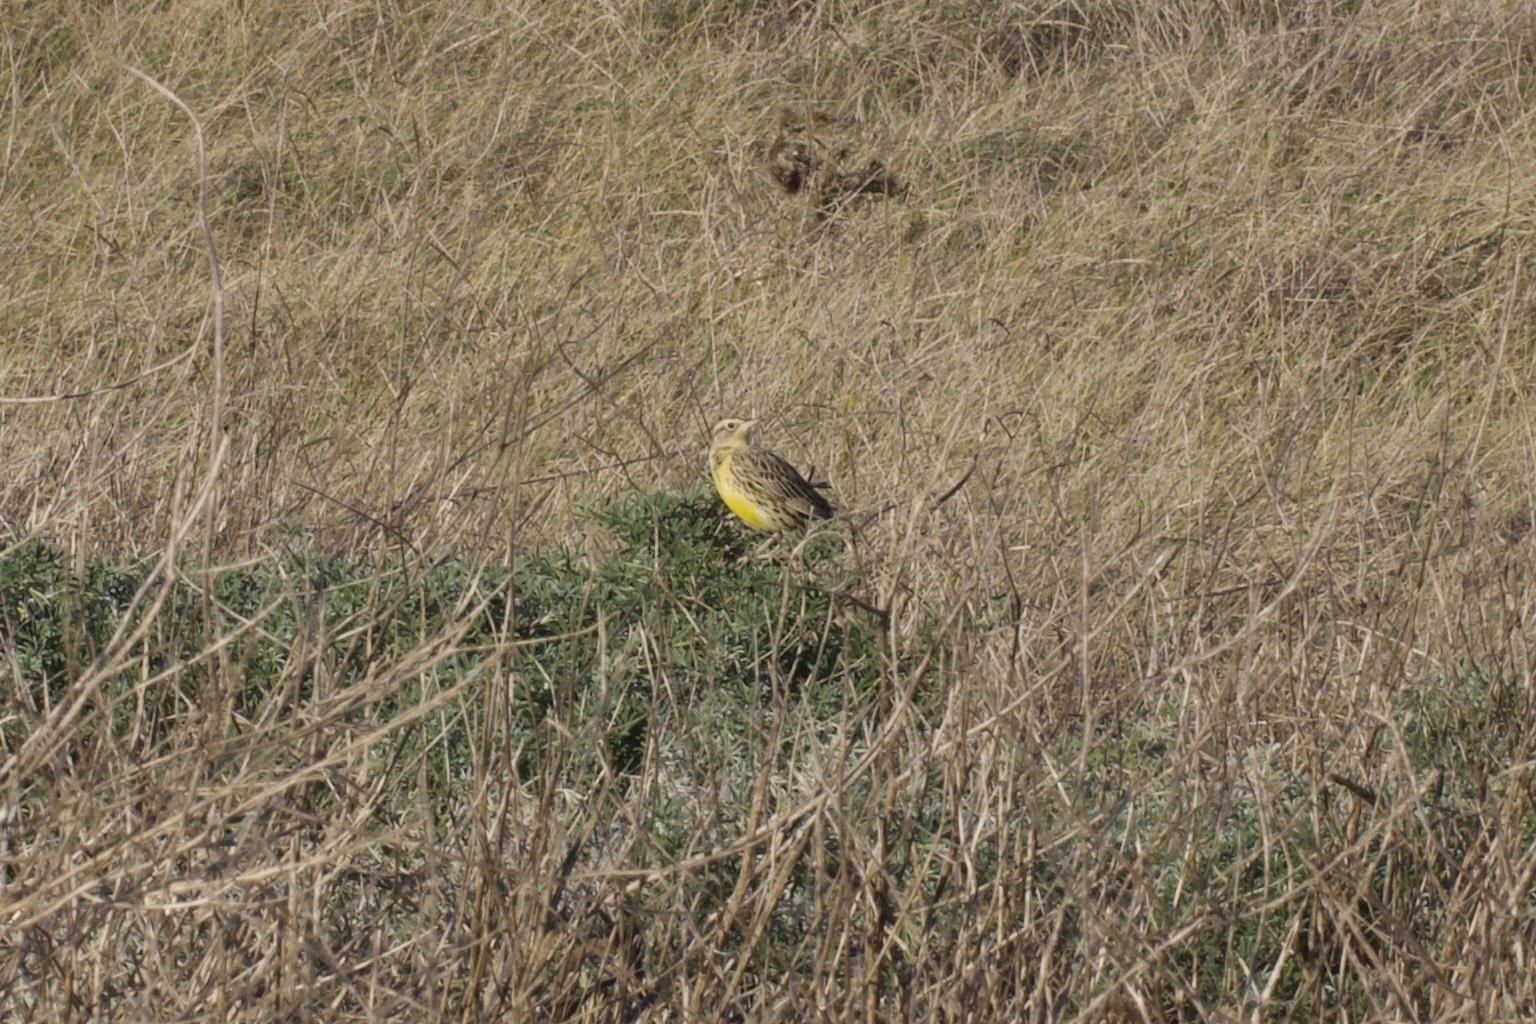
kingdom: Animalia
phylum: Chordata
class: Aves
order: Passeriformes
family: Icteridae
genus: Sturnella
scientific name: Sturnella neglecta
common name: Western meadowlark
